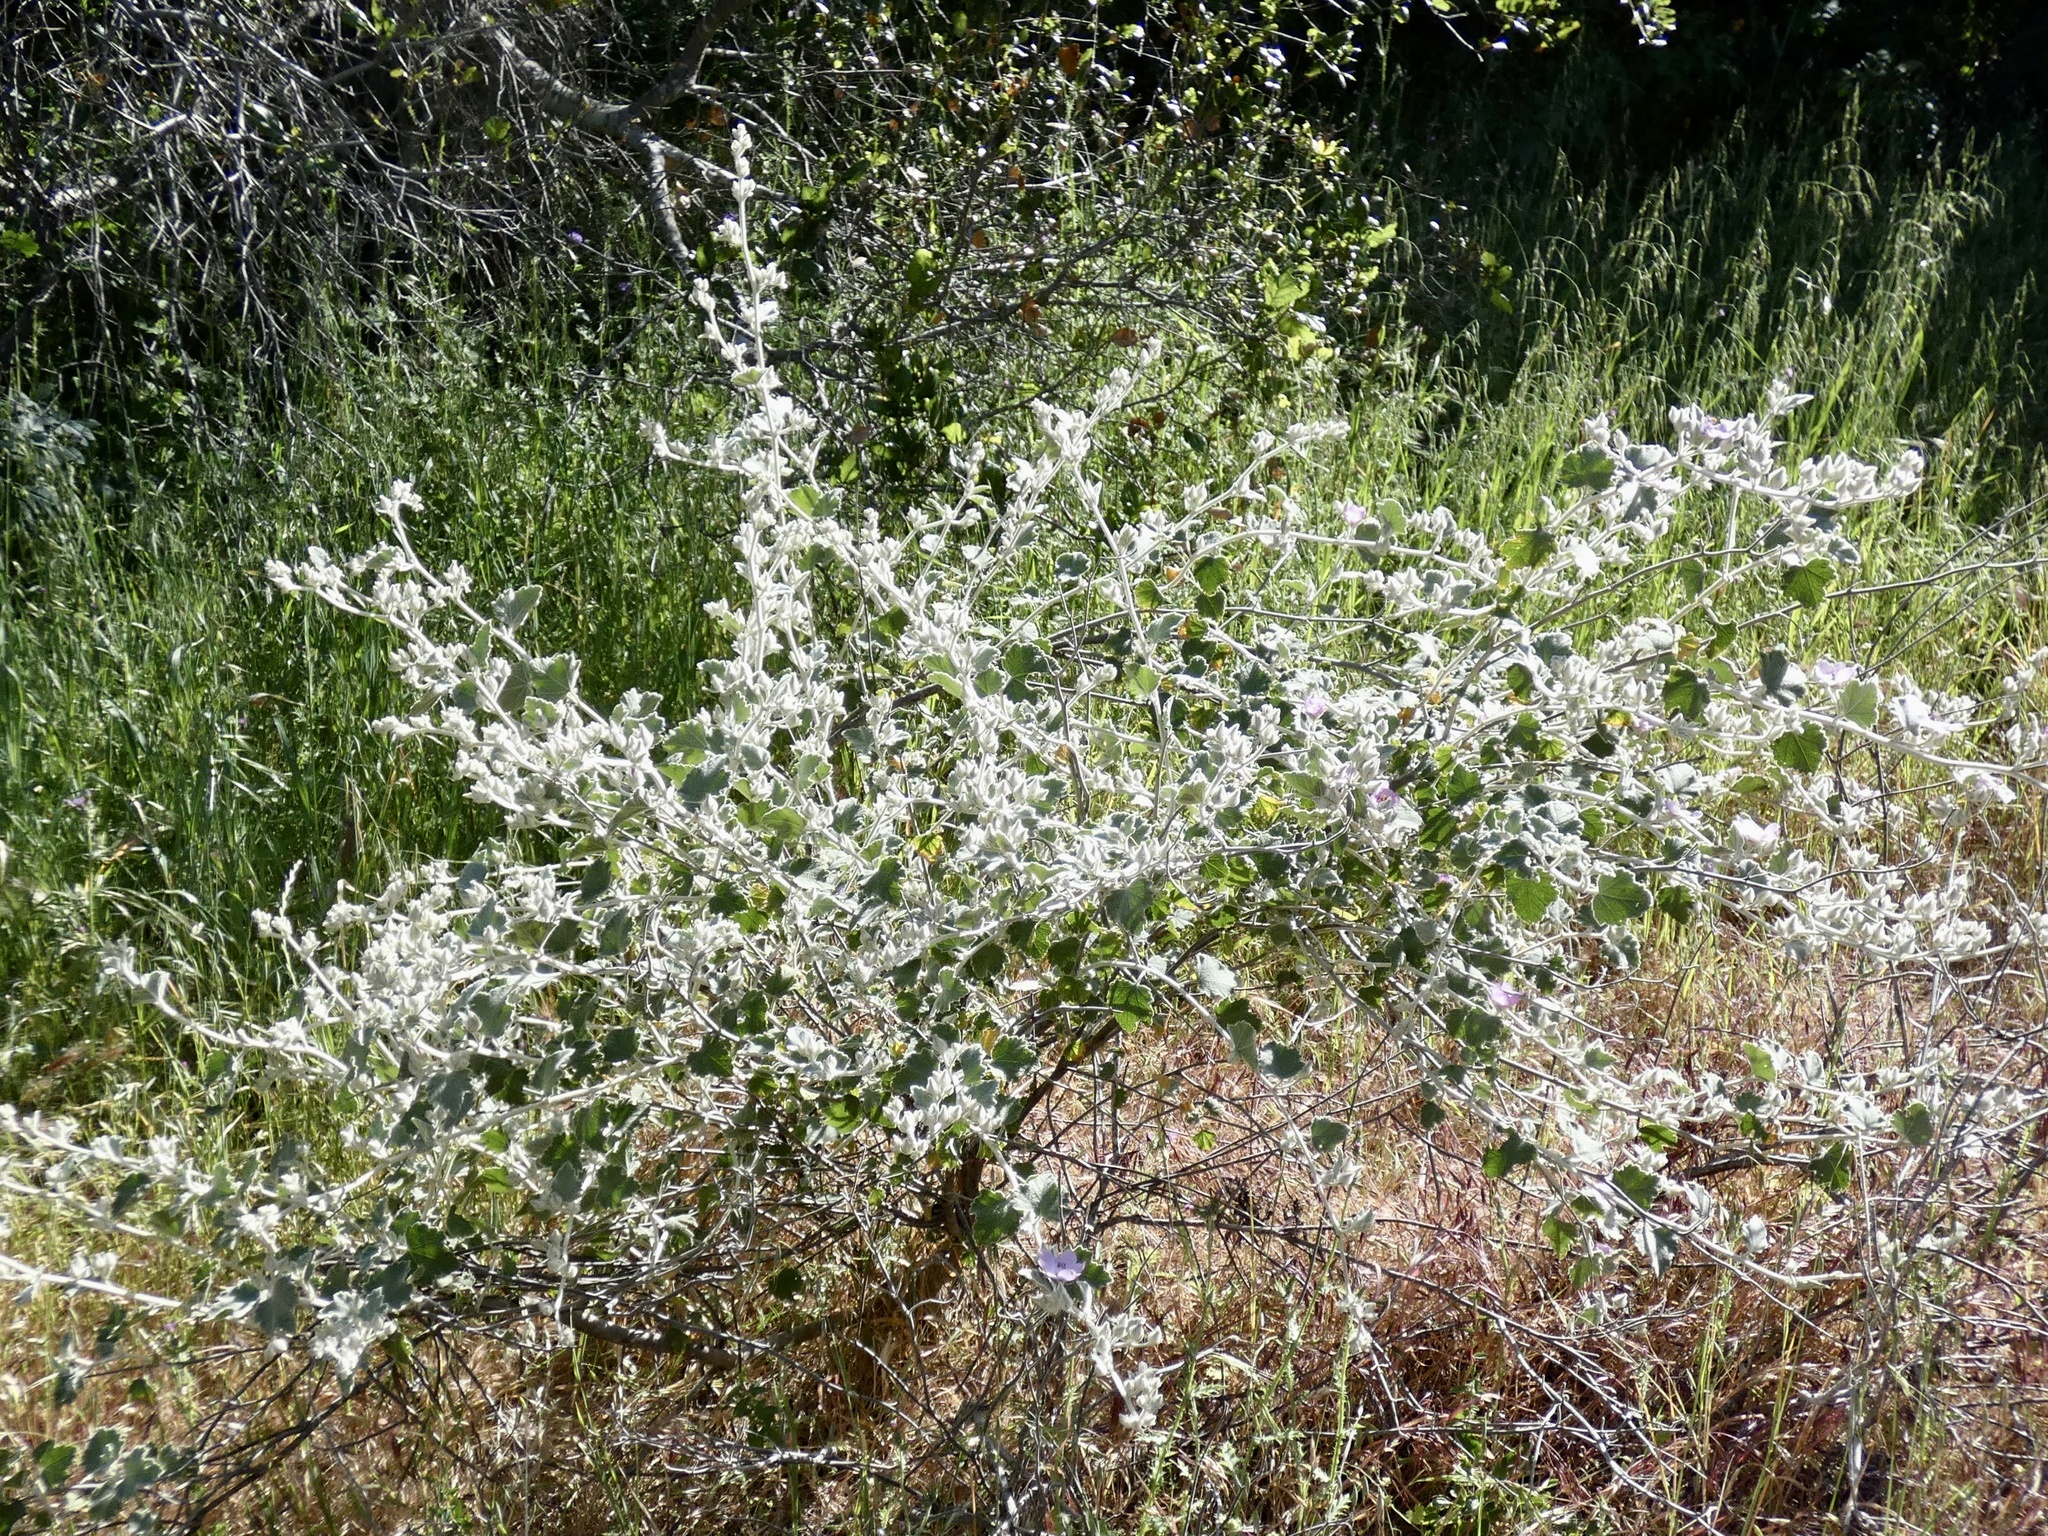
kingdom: Plantae
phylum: Tracheophyta
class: Magnoliopsida
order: Malvales
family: Malvaceae
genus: Malacothamnus
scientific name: Malacothamnus fremontii
